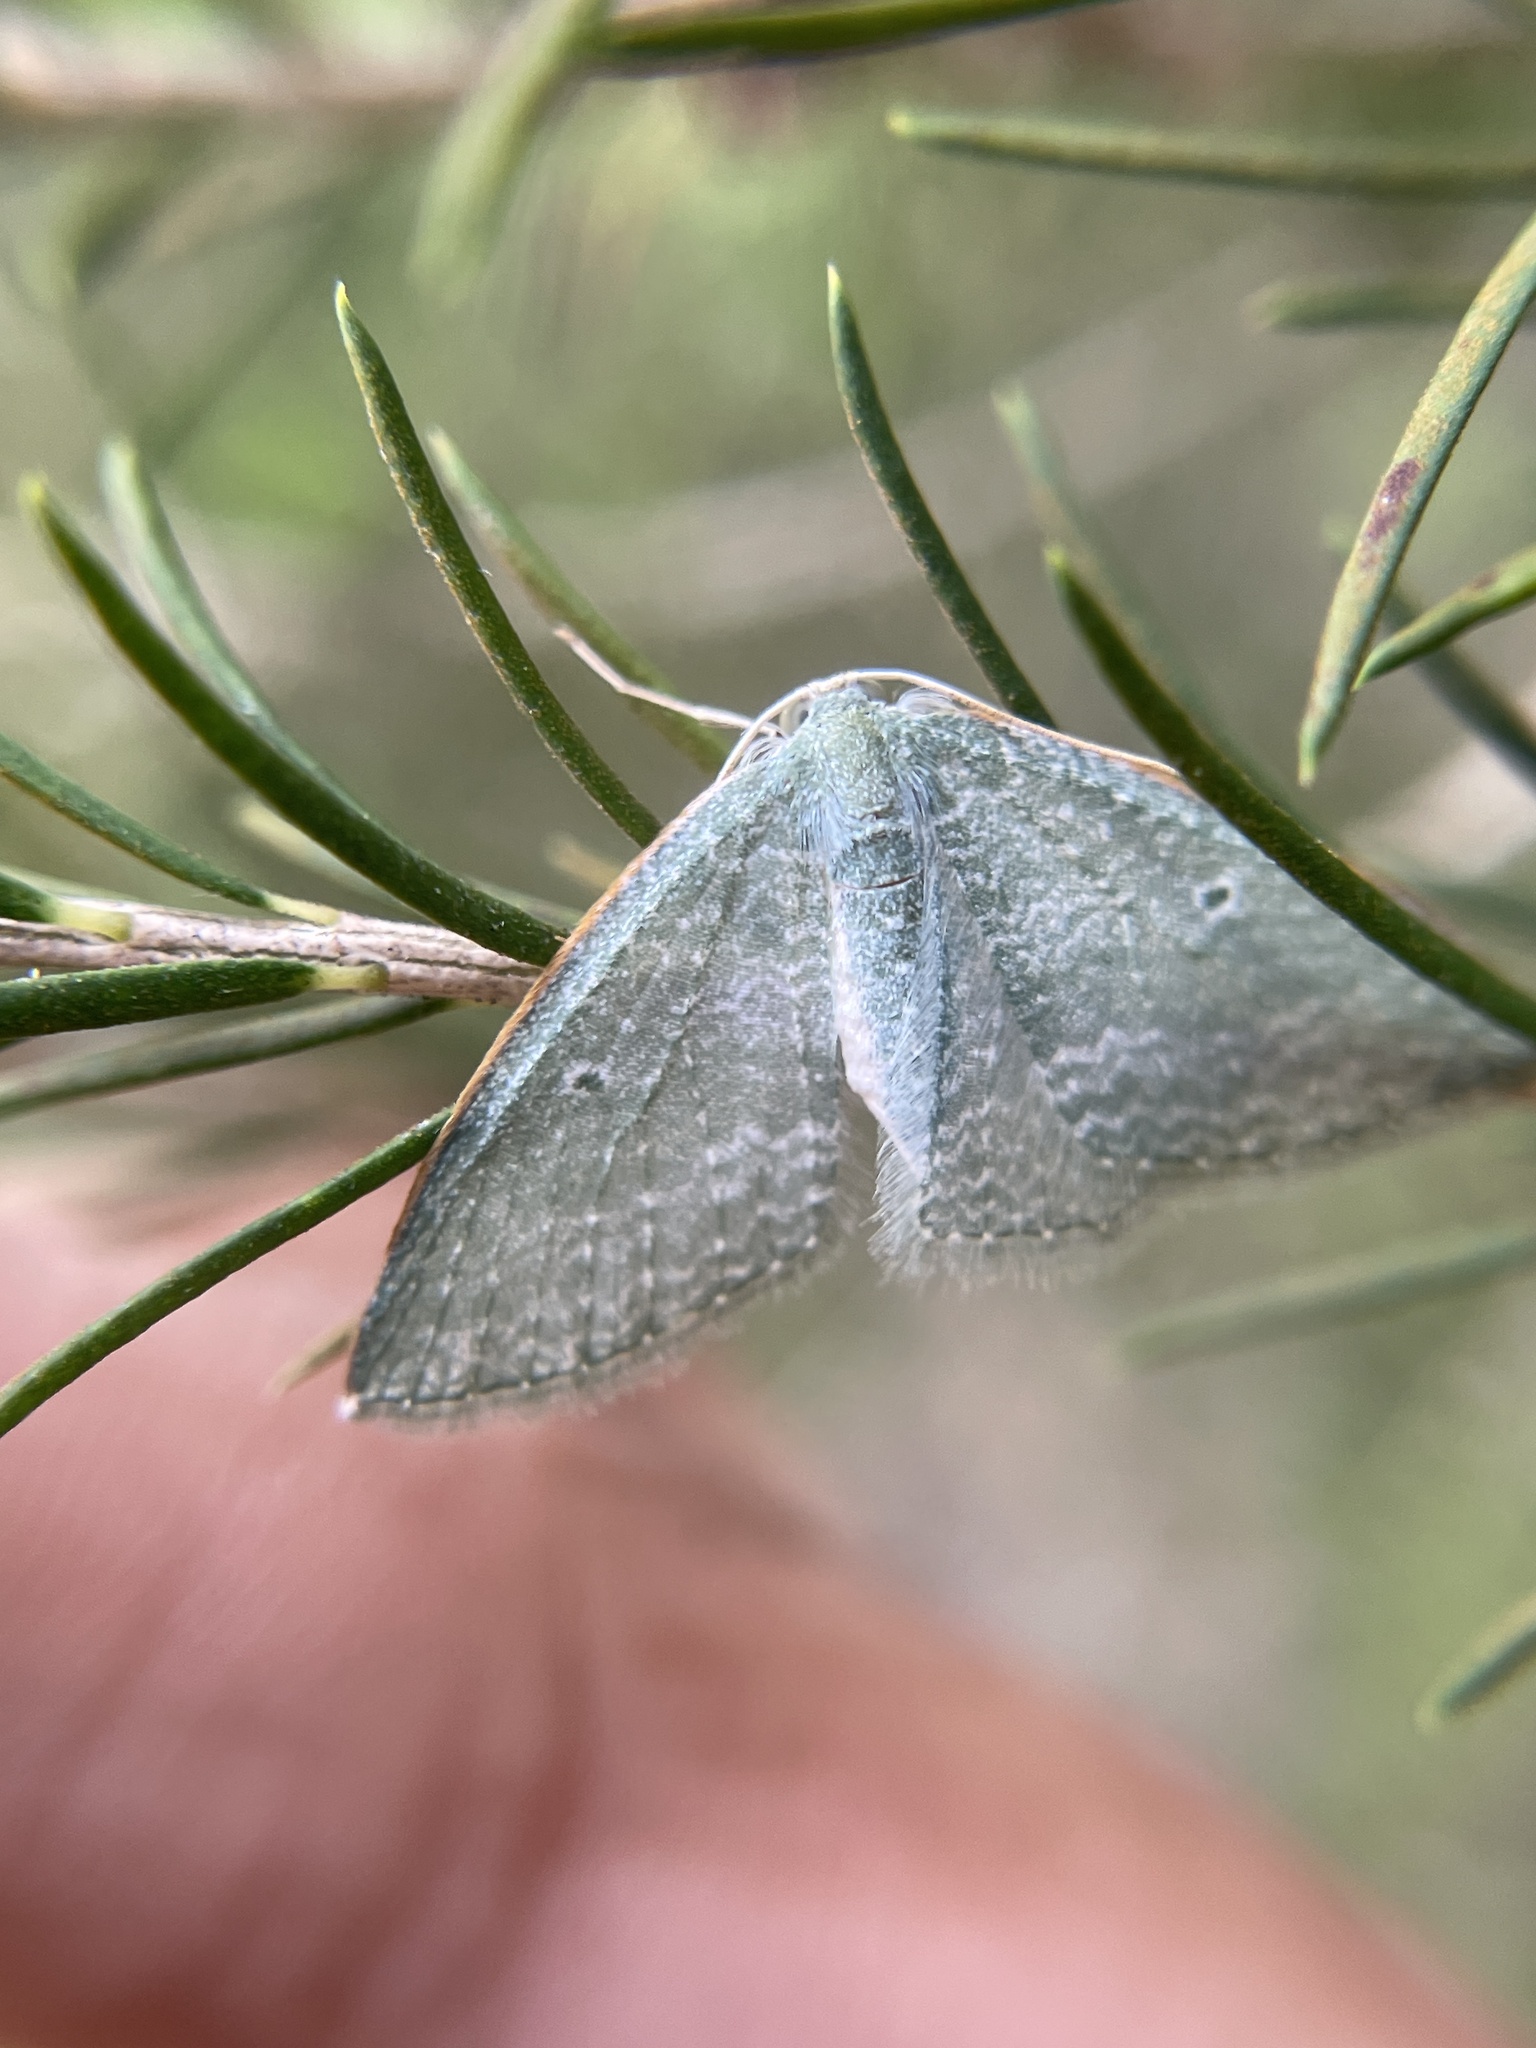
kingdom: Animalia
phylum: Arthropoda
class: Insecta
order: Lepidoptera
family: Geometridae
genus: Poecilasthena
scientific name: Poecilasthena thalassias
